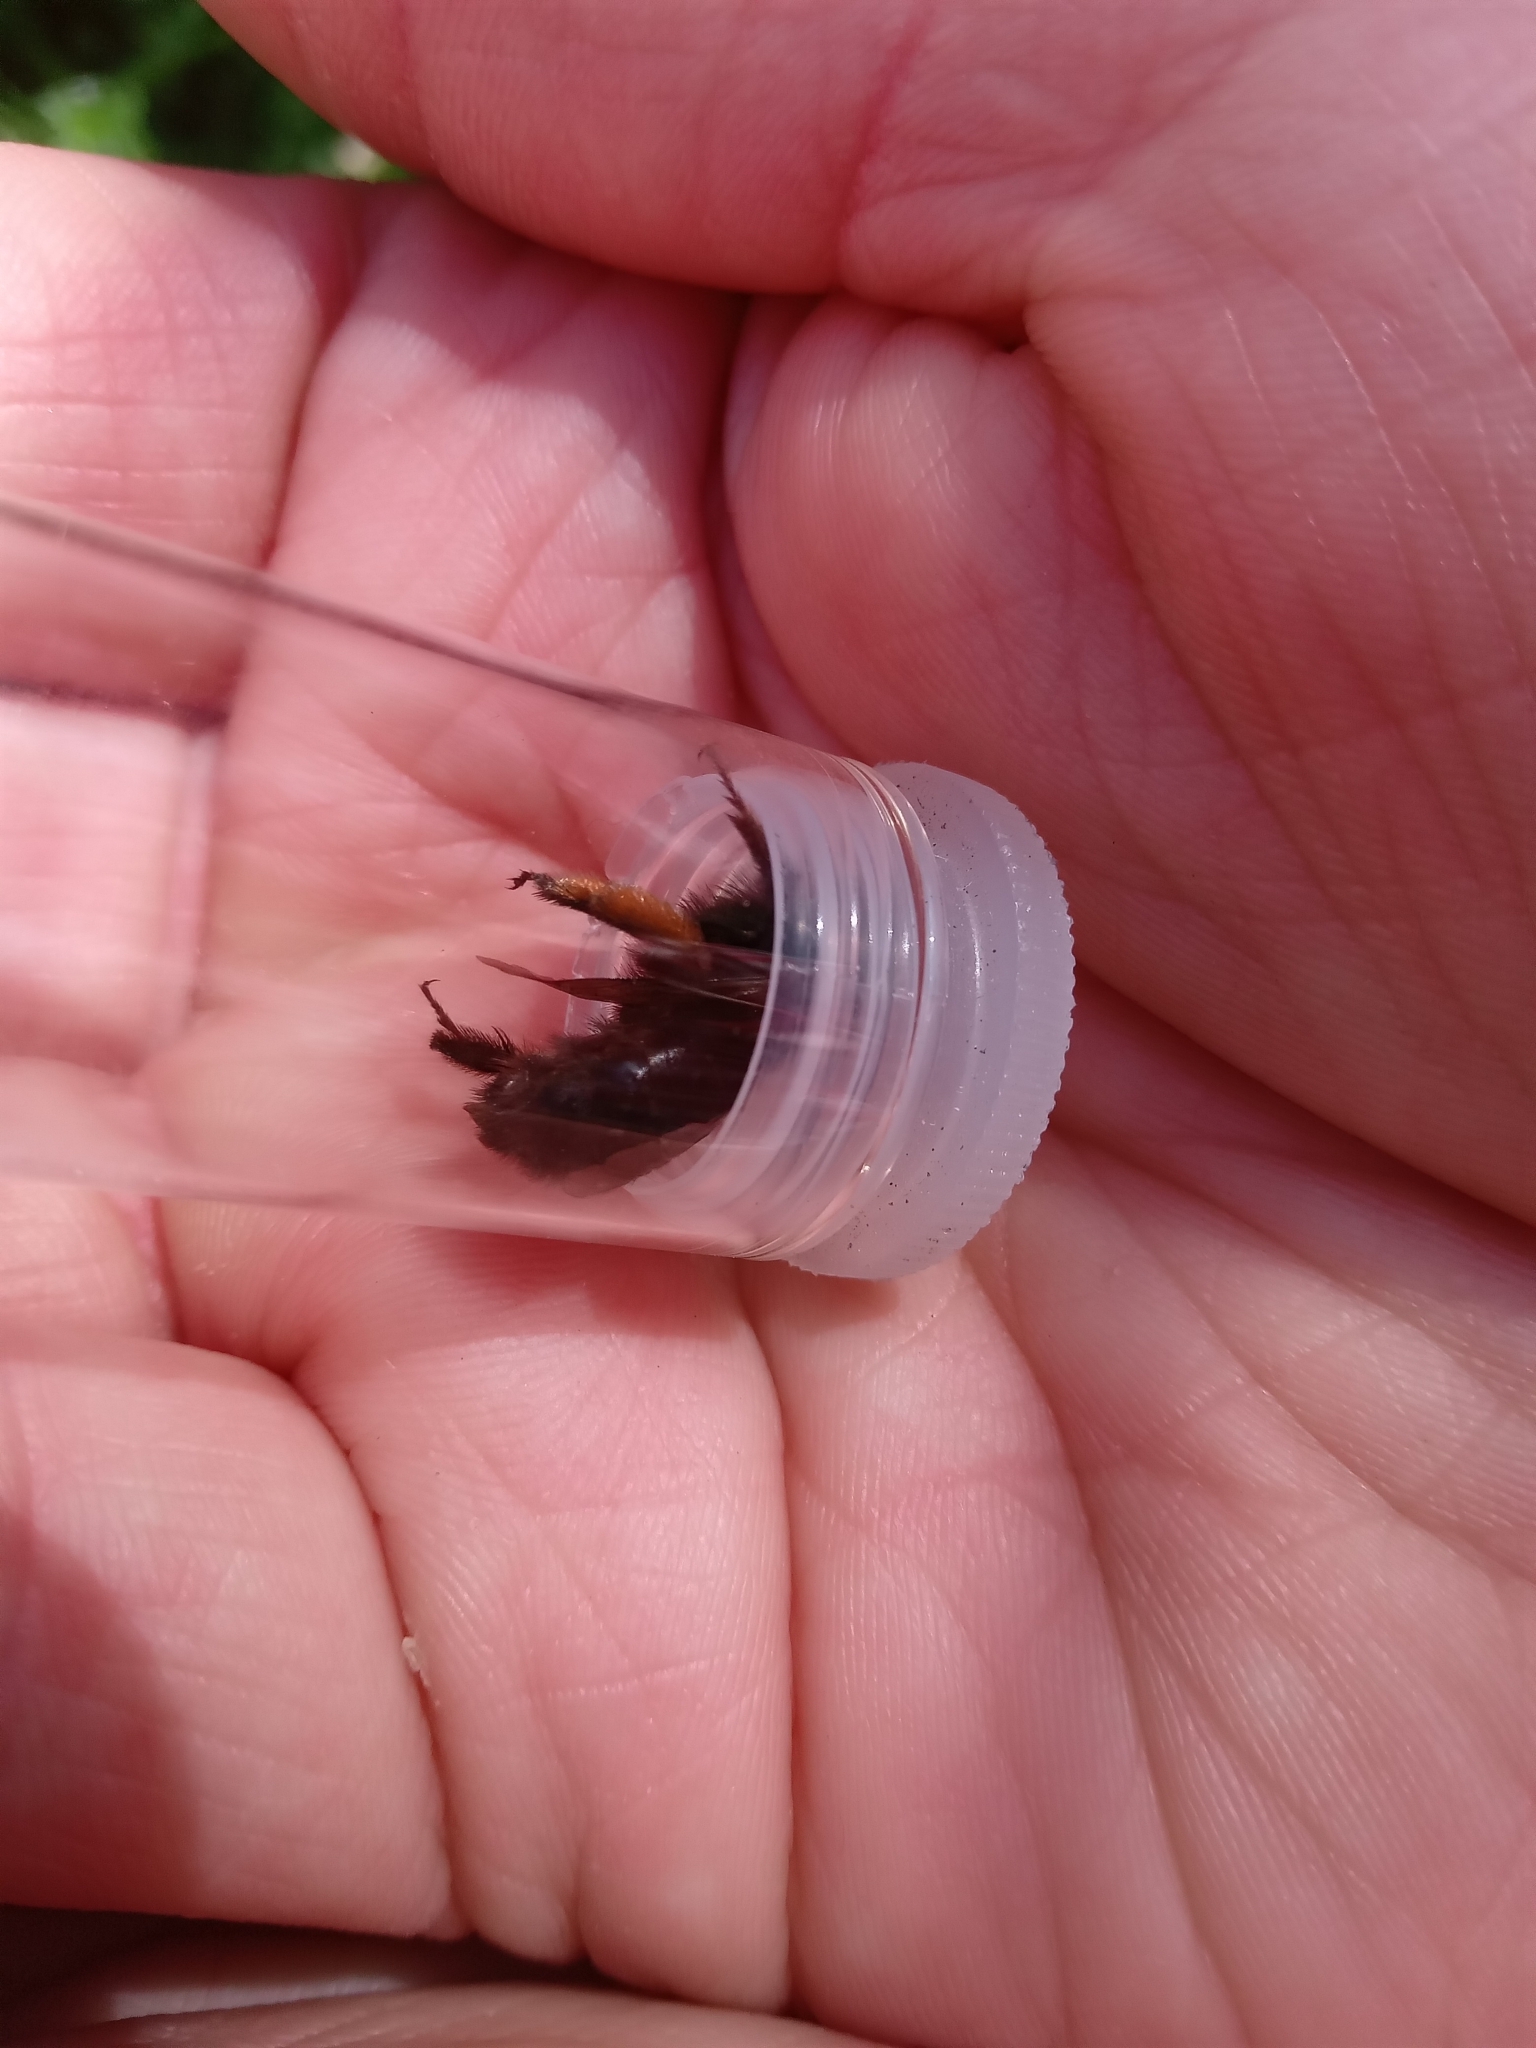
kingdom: Animalia
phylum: Arthropoda
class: Insecta
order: Hymenoptera
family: Apidae
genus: Anthophora
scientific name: Anthophora plumipes
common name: Hairy-footed flower bee
